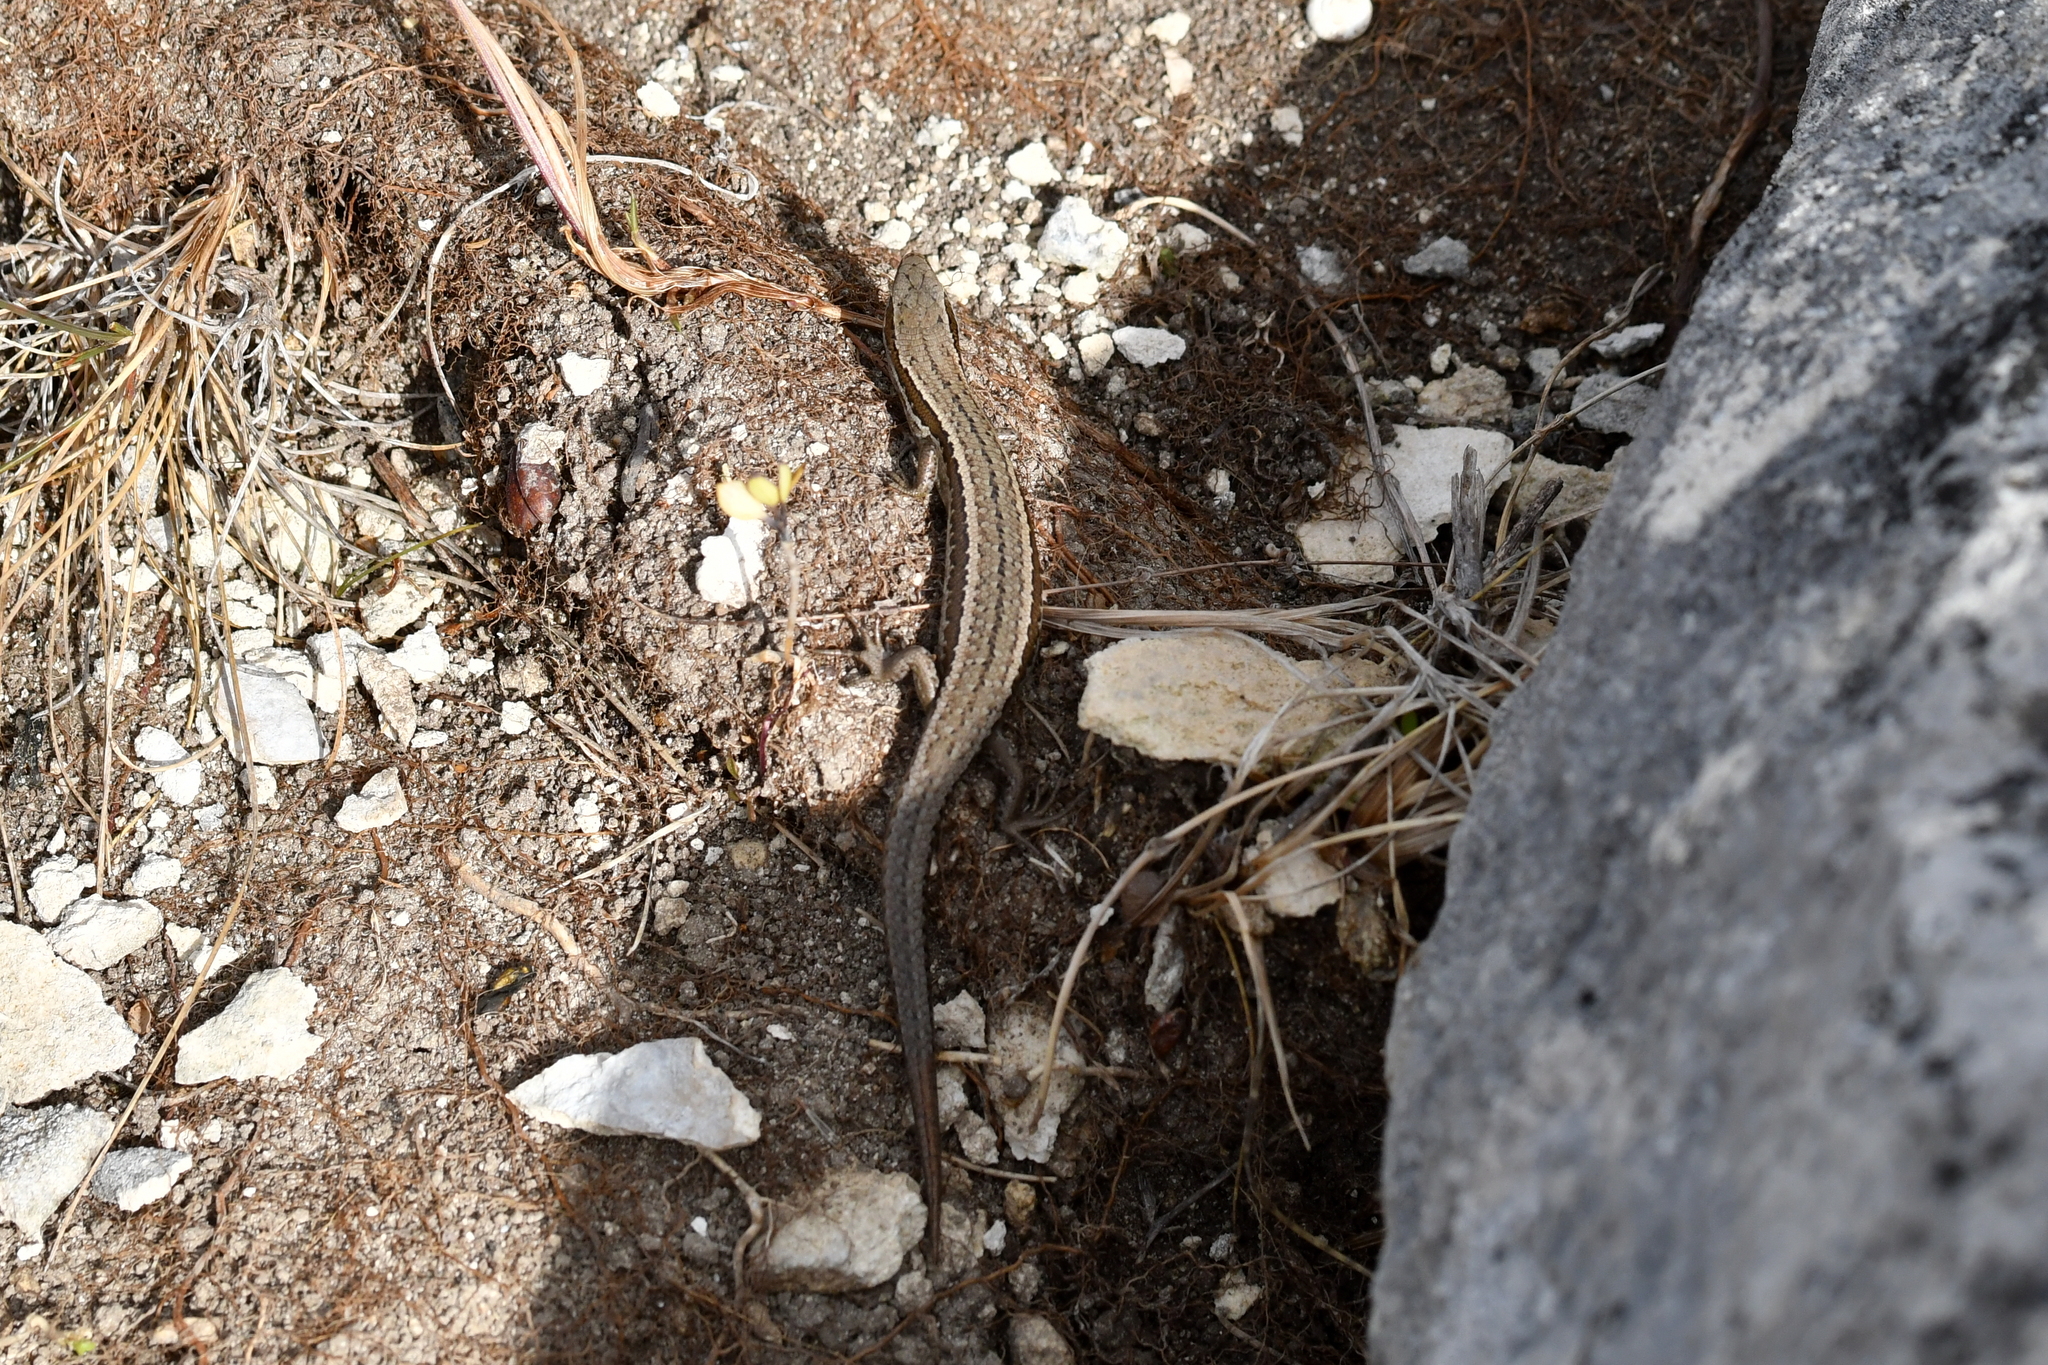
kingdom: Animalia
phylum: Chordata
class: Squamata
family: Scincidae
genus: Oligosoma
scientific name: Oligosoma polychroma
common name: Common new zealand skink
